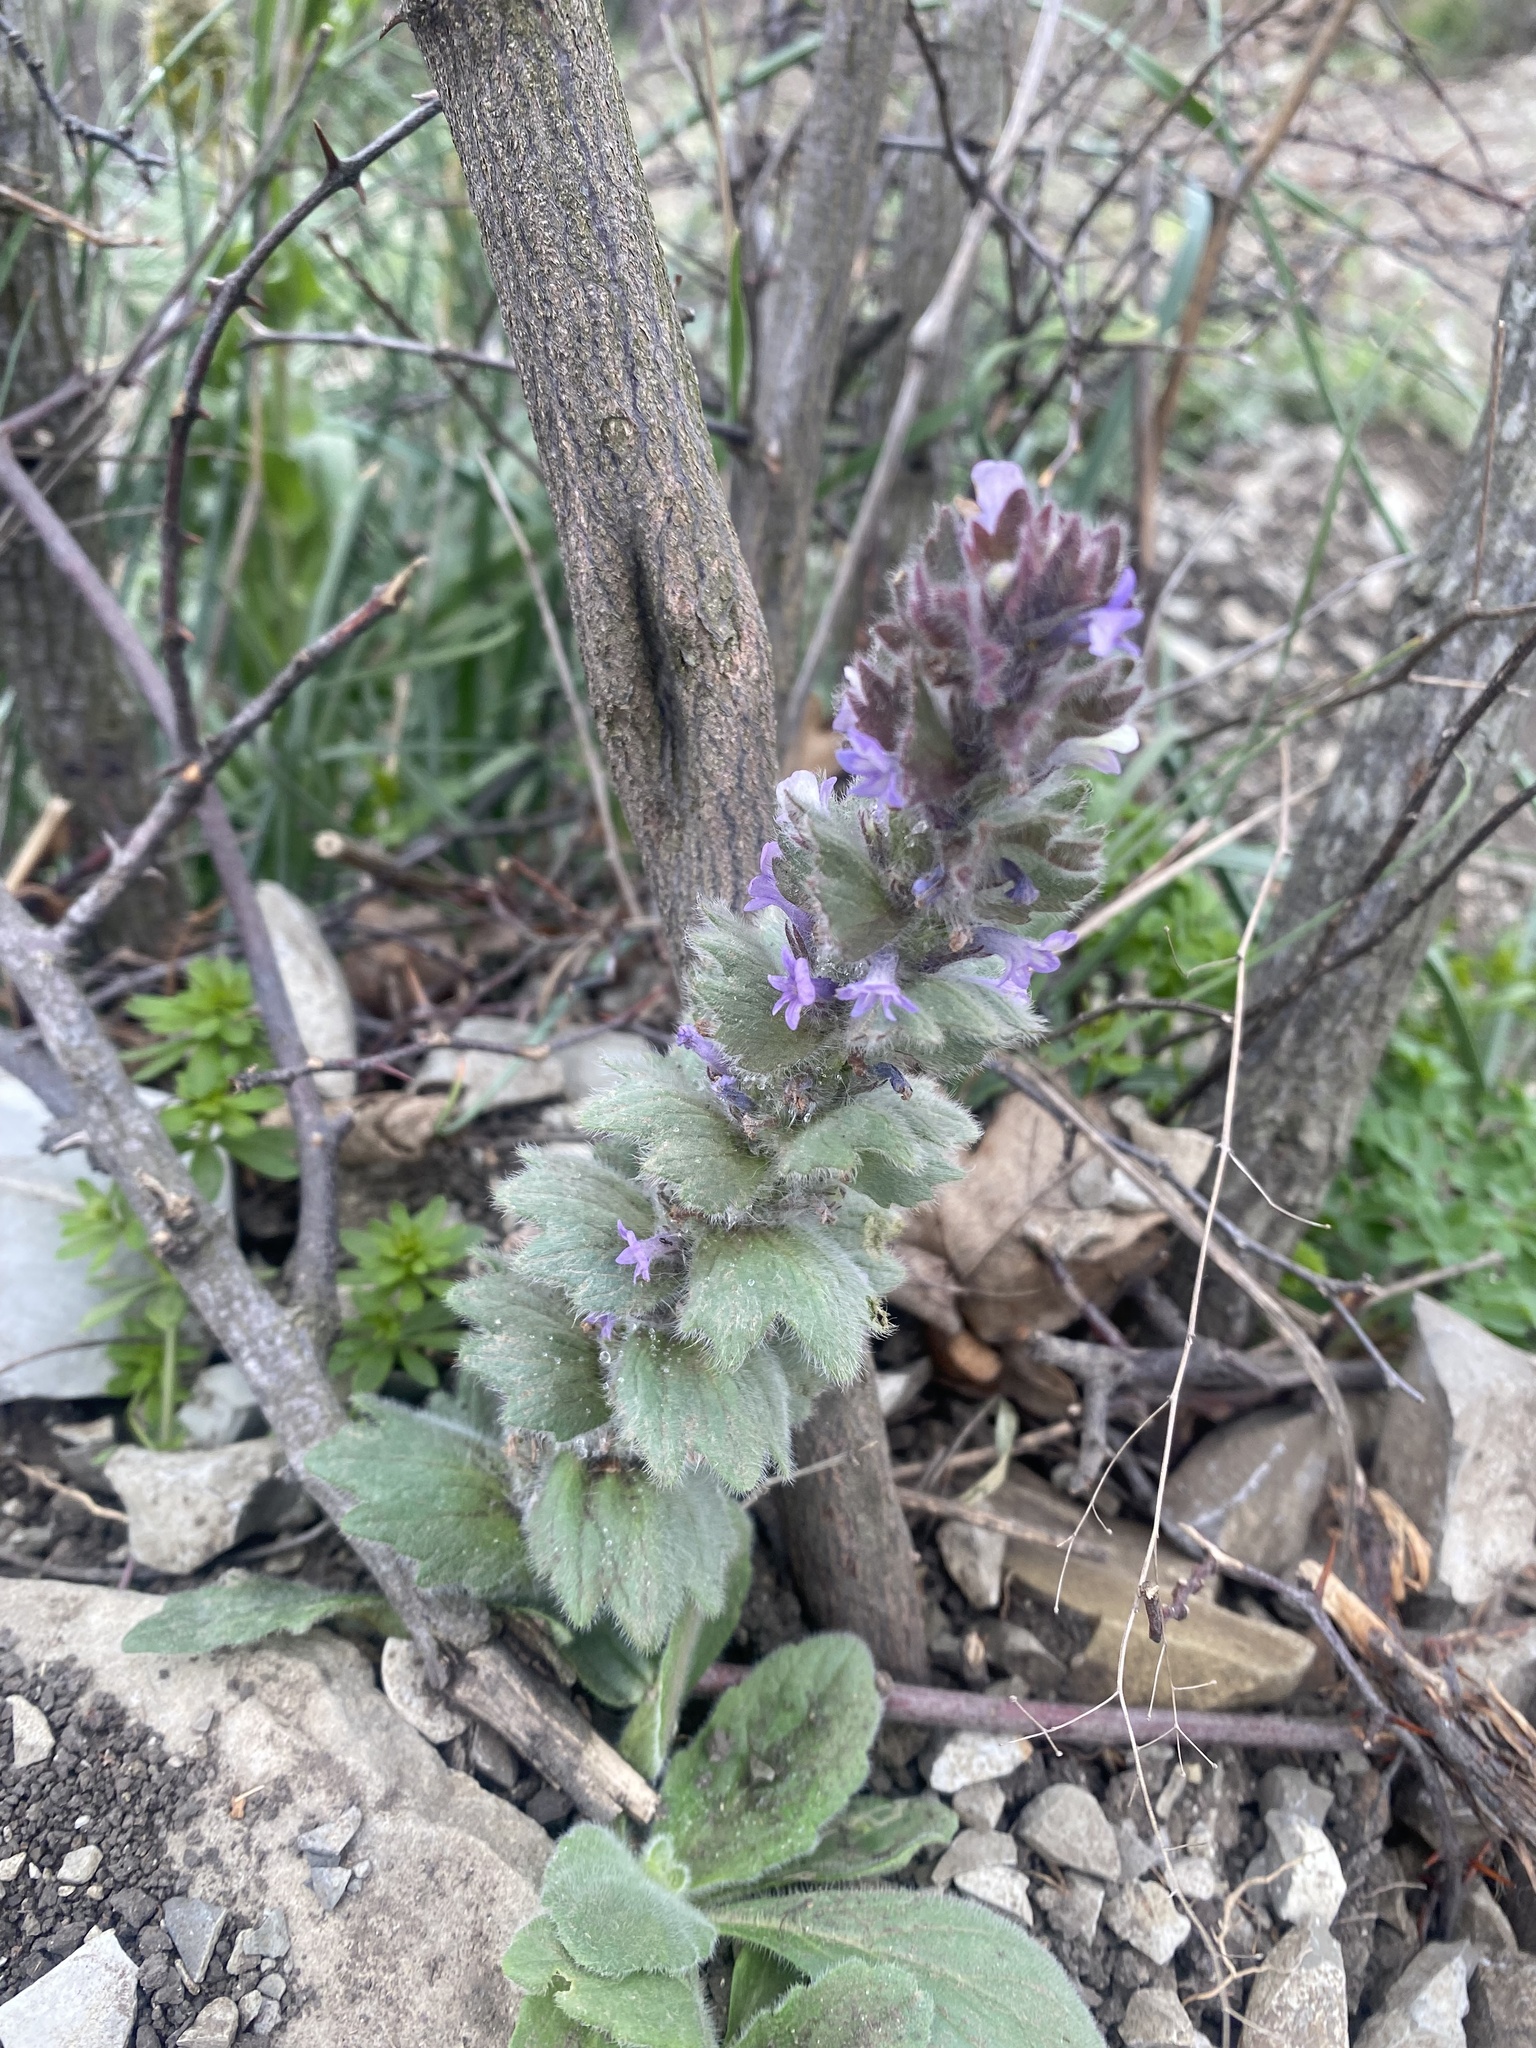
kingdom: Plantae
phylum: Tracheophyta
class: Magnoliopsida
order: Lamiales
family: Lamiaceae
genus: Ajuga
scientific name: Ajuga orientalis
